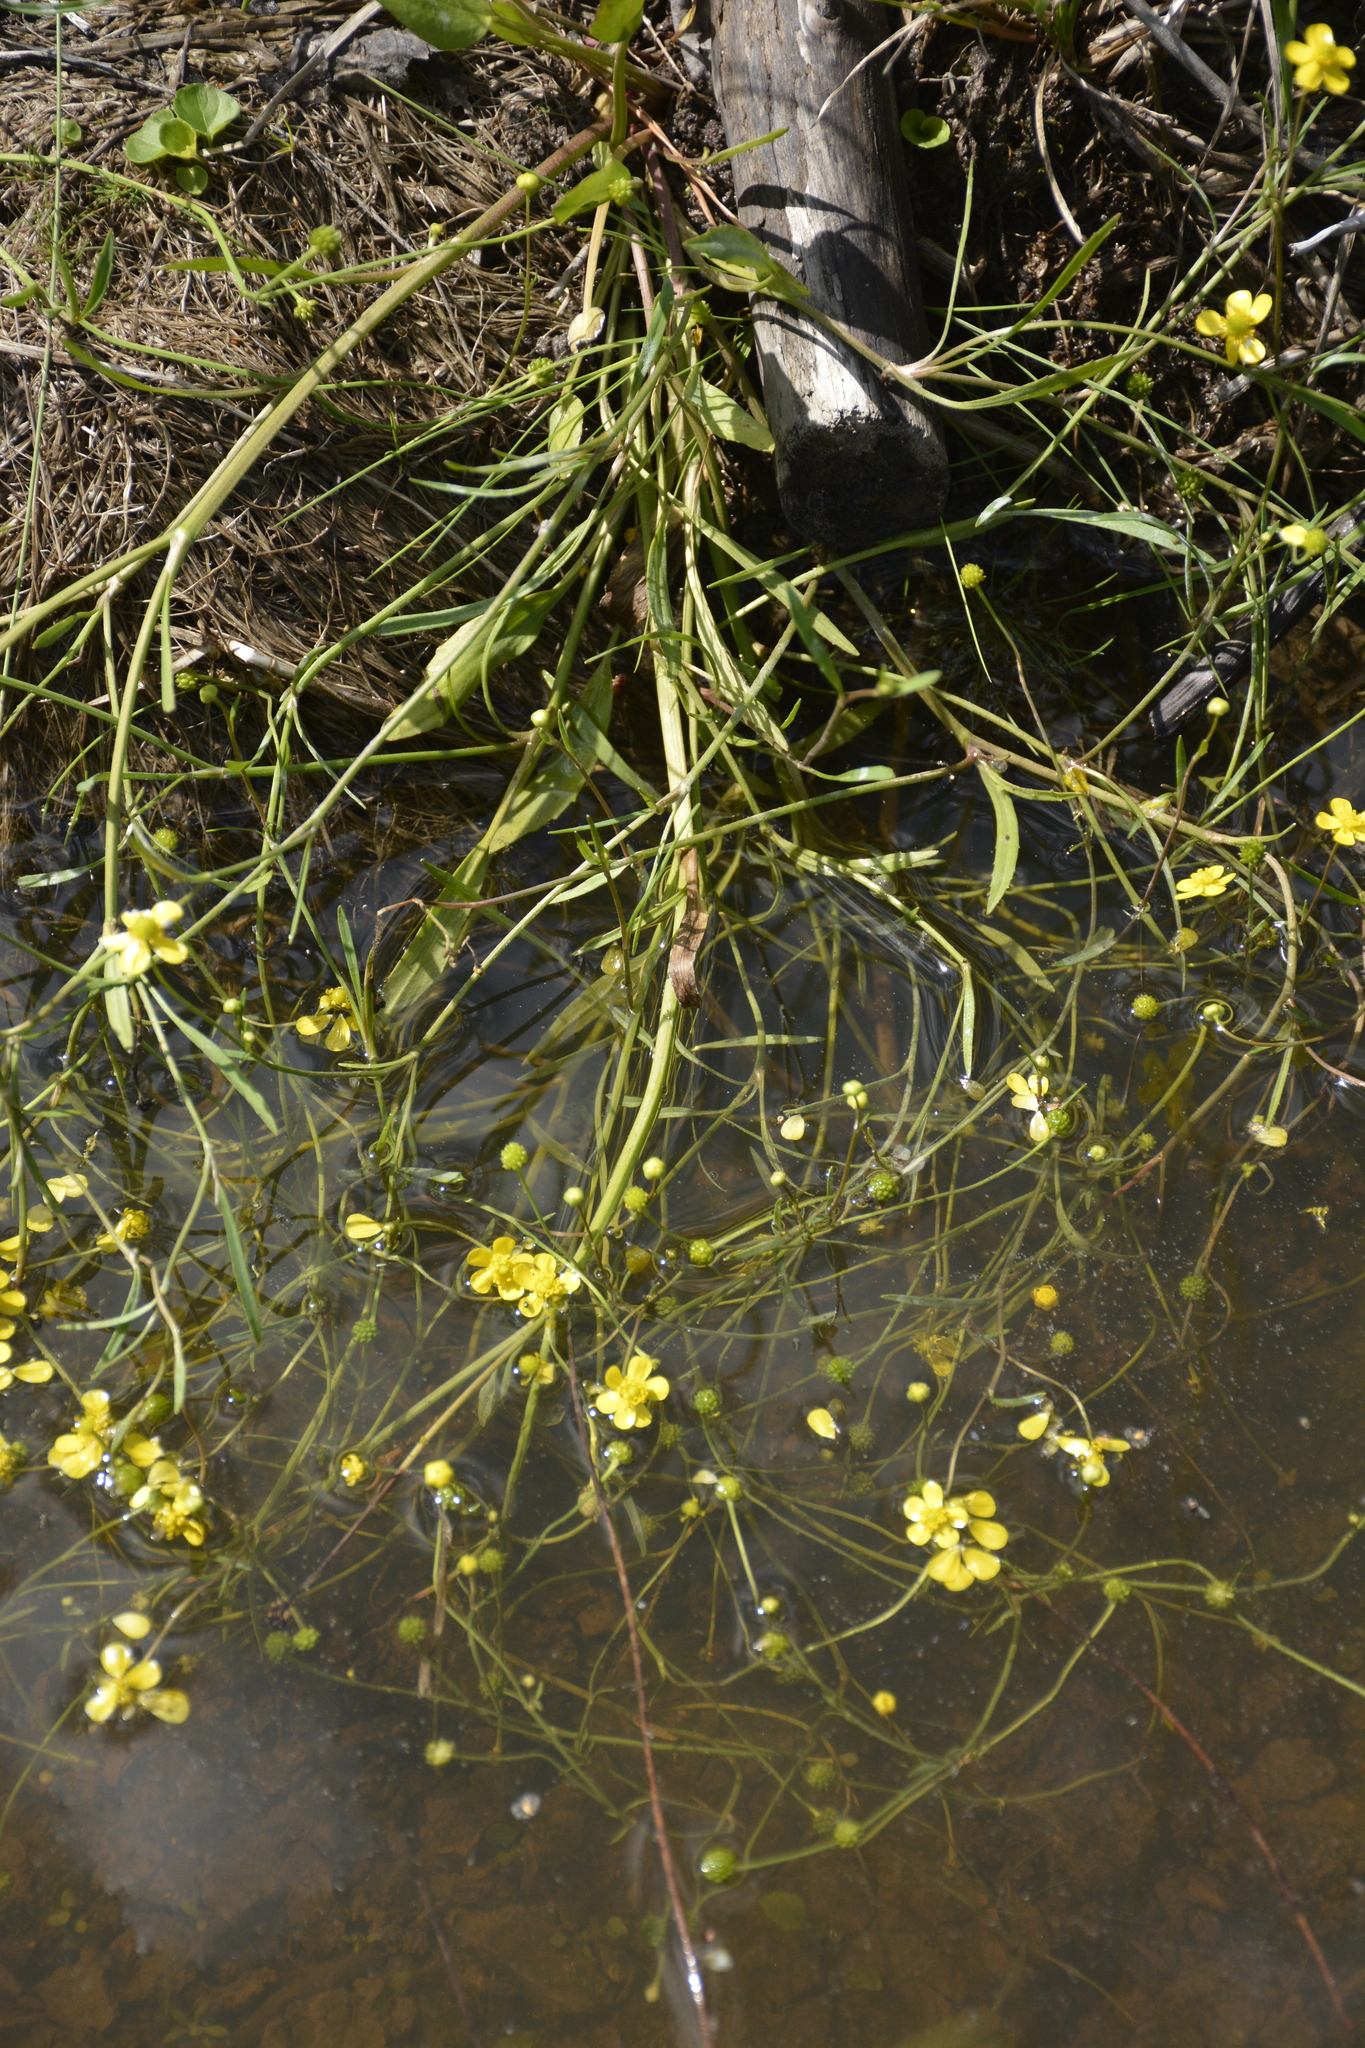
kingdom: Plantae
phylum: Tracheophyta
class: Magnoliopsida
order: Ranunculales
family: Ranunculaceae
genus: Ranunculus
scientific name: Ranunculus flammula
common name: Lesser spearwort
